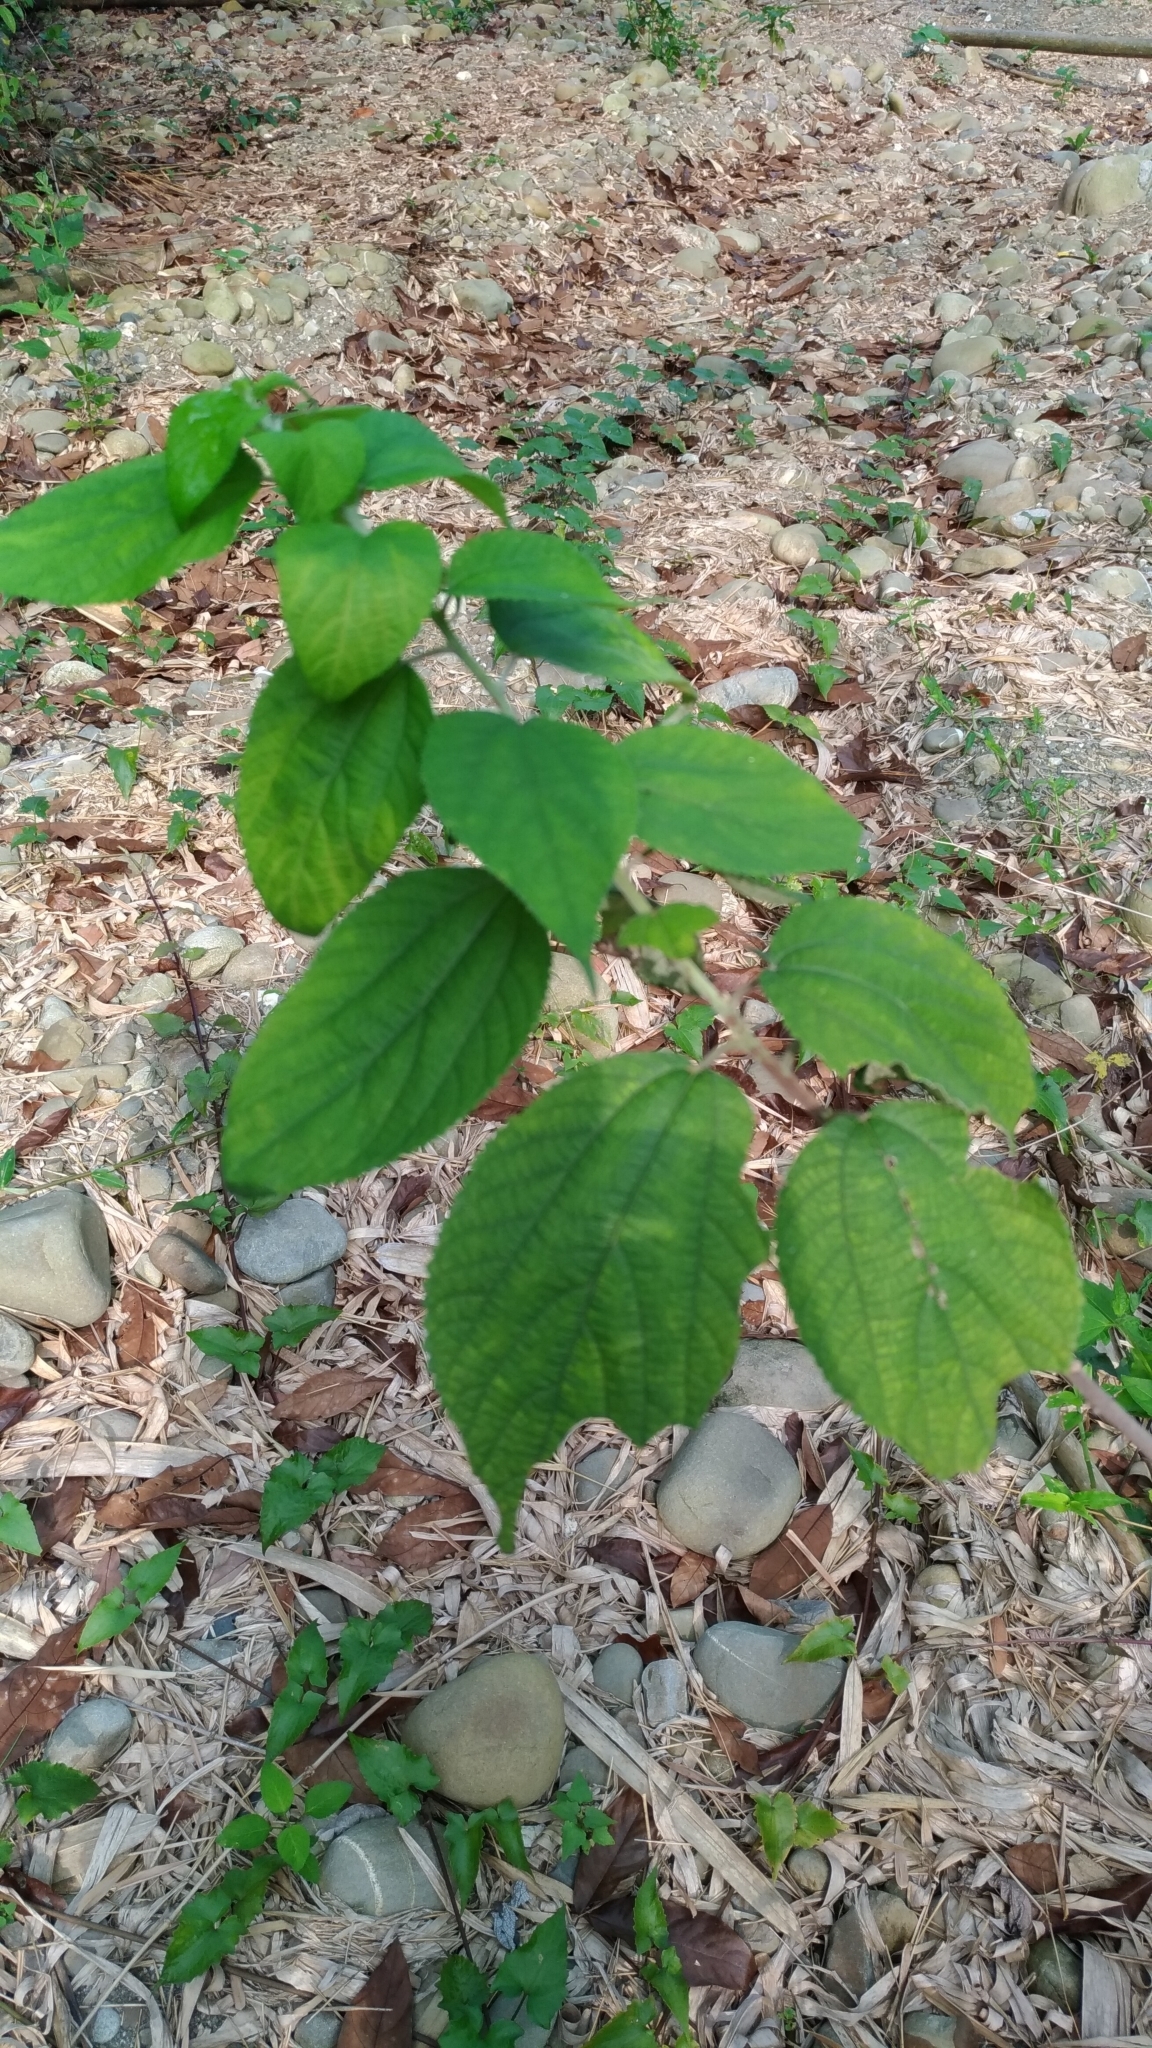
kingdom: Plantae
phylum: Tracheophyta
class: Magnoliopsida
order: Rosales
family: Urticaceae
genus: Boehmeria
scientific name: Boehmeria nivea
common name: Ramie chinese grass
